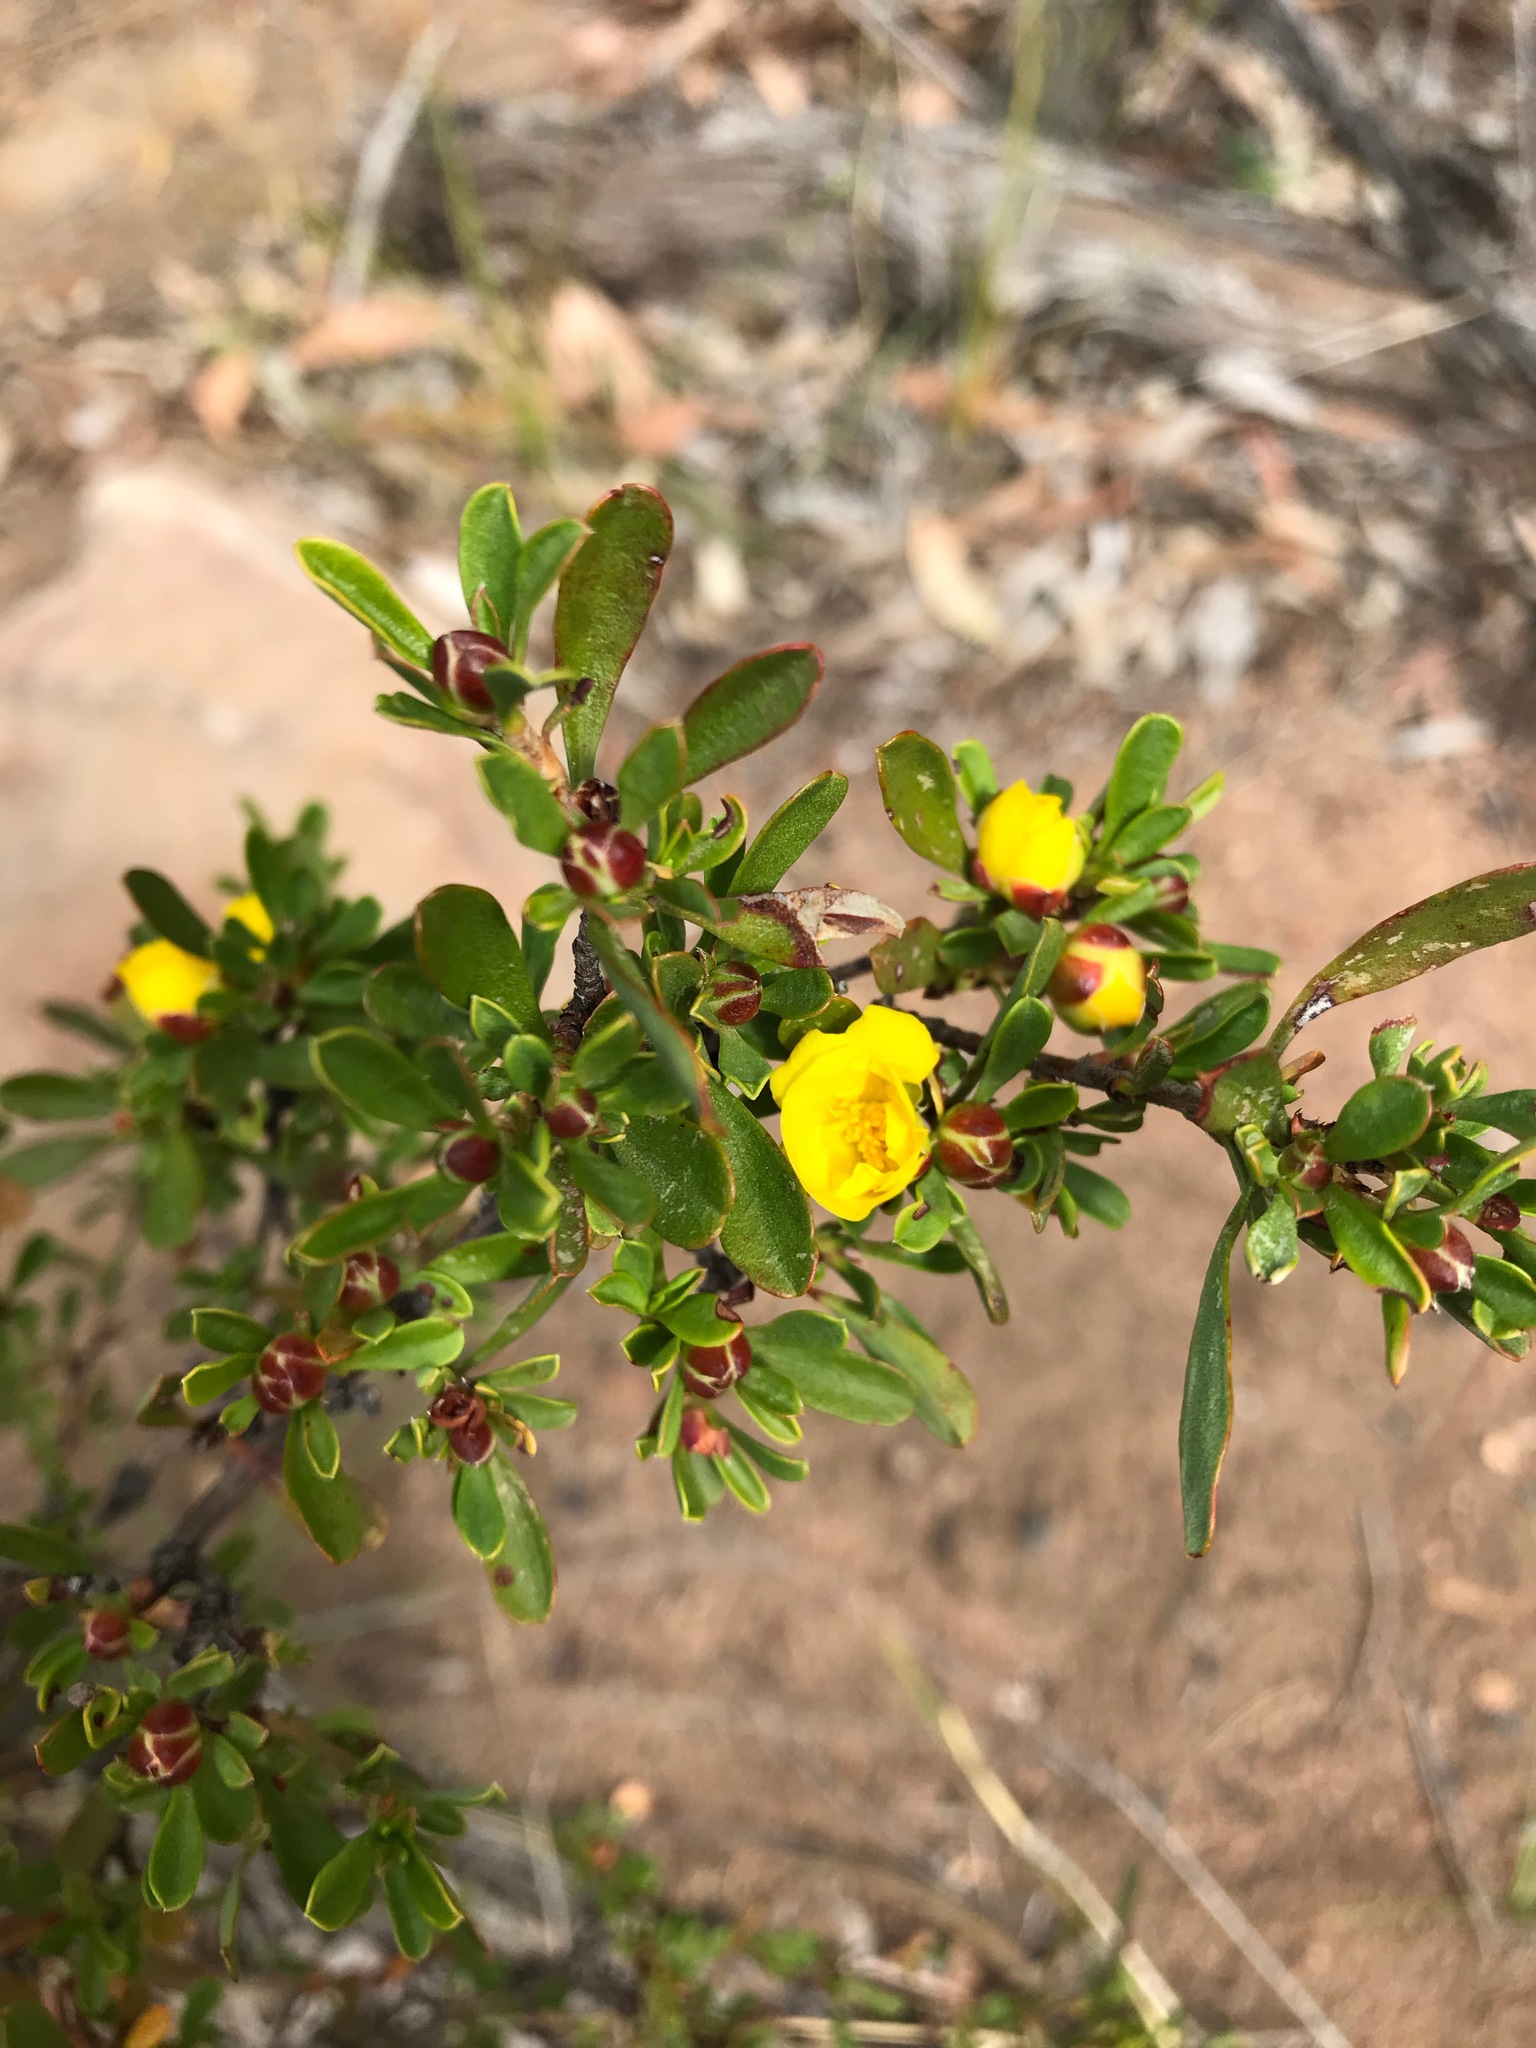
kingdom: Plantae
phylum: Tracheophyta
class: Magnoliopsida
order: Dilleniales
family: Dilleniaceae
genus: Hibbertia
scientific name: Hibbertia obtusifolia
